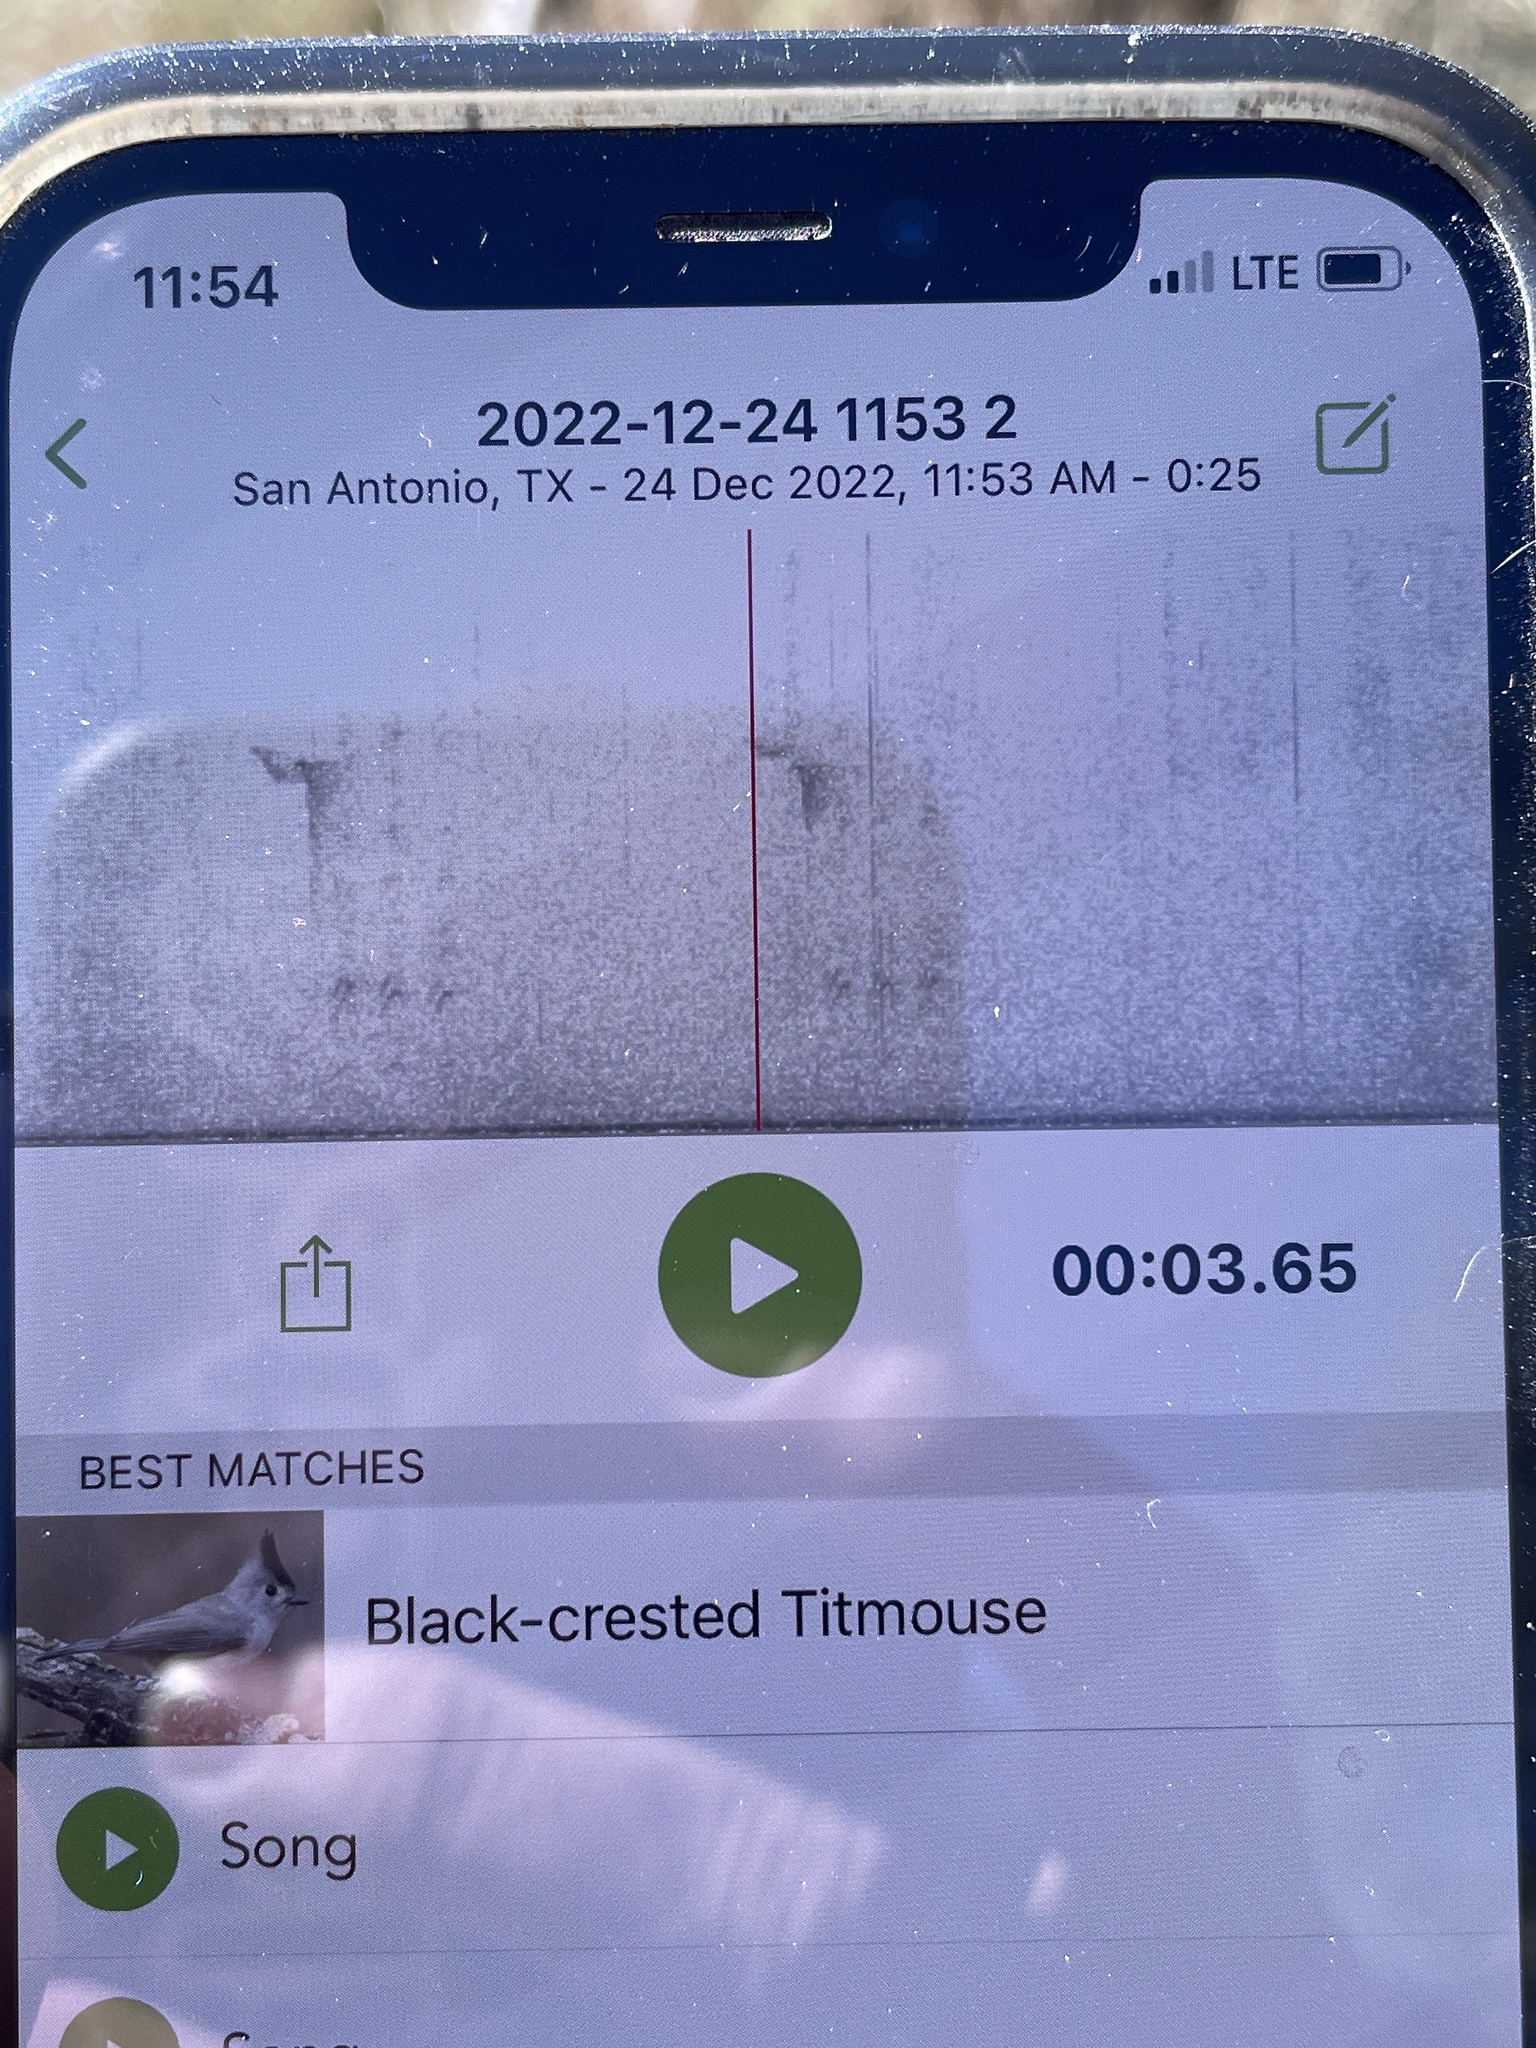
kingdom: Animalia
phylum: Chordata
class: Aves
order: Passeriformes
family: Paridae
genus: Baeolophus
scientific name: Baeolophus atricristatus
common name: Black-crested titmouse
